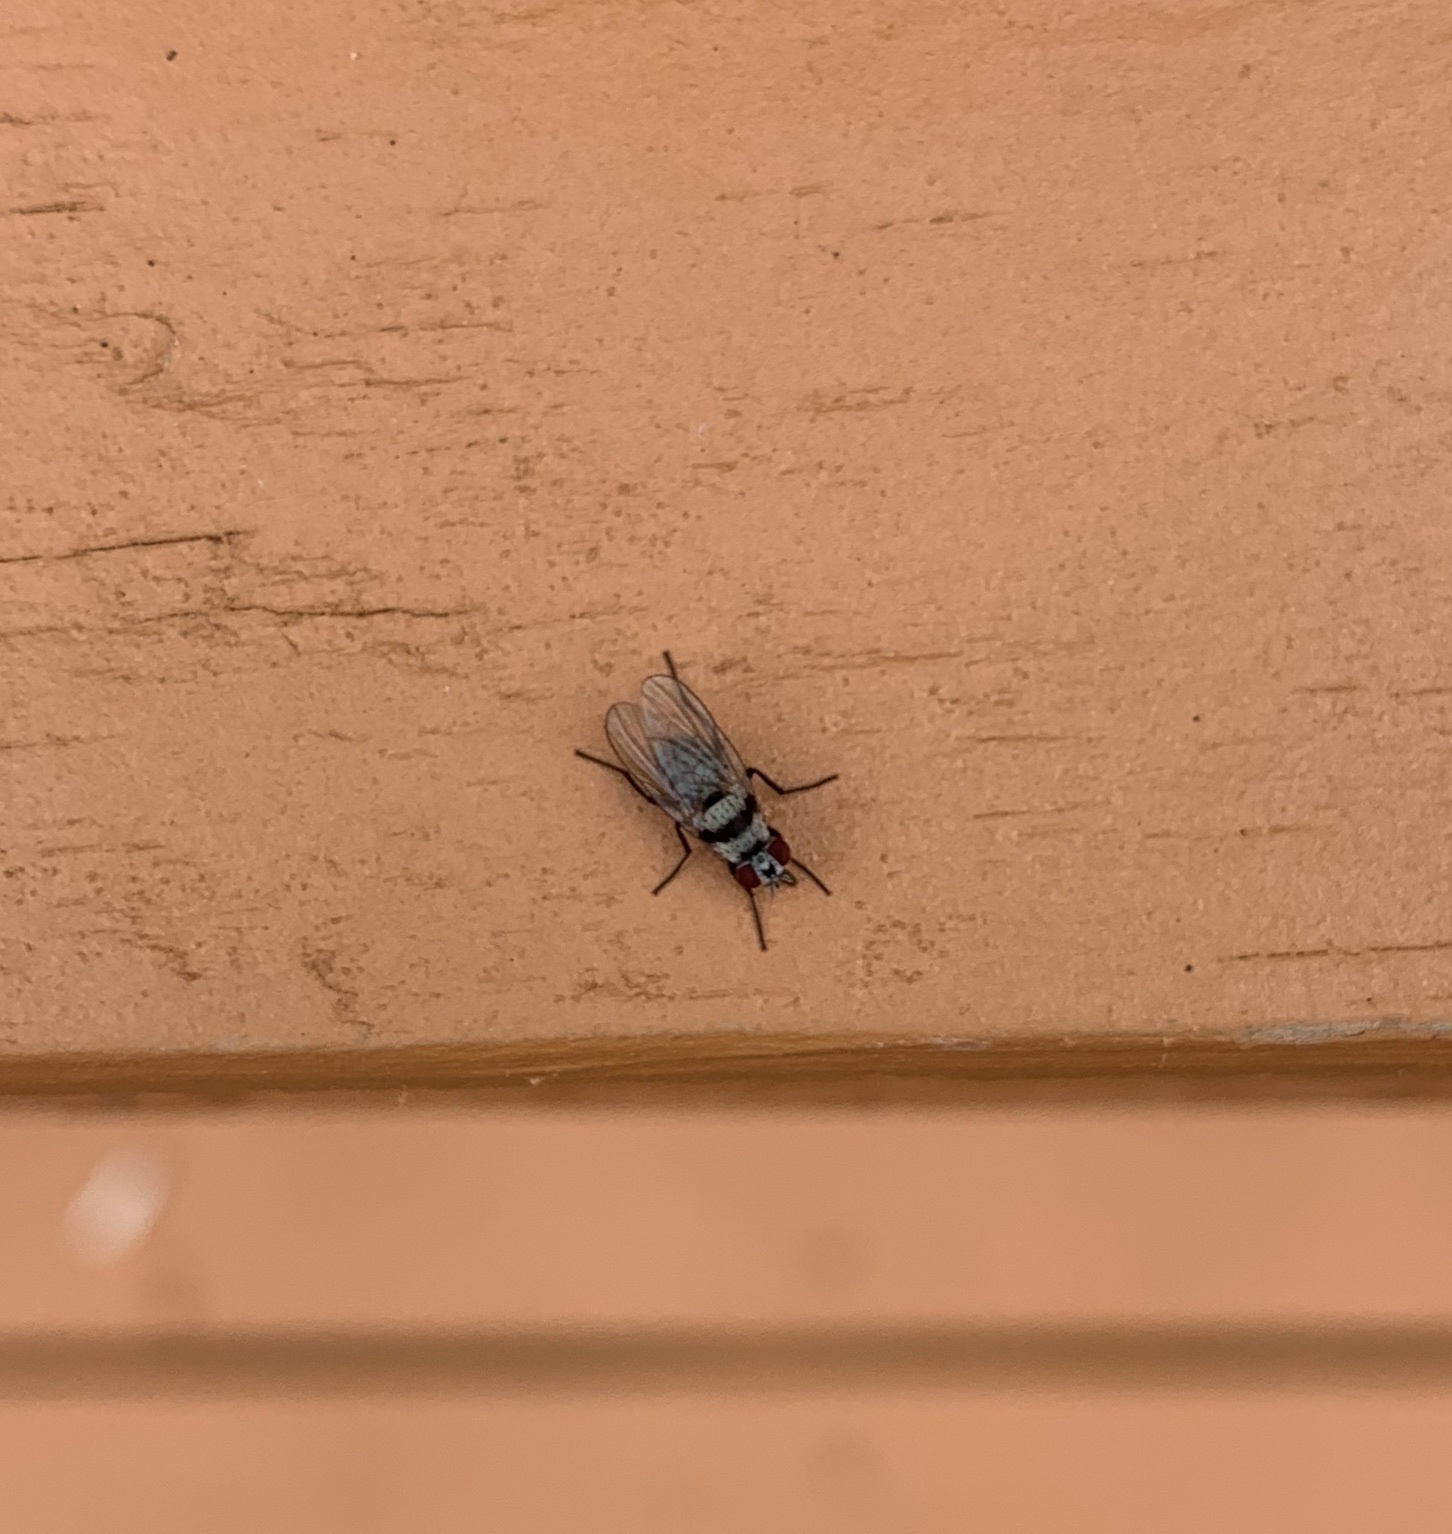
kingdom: Animalia
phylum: Arthropoda
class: Insecta
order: Diptera
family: Anthomyiidae
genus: Anthomyia
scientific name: Anthomyia illocata
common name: Fly
